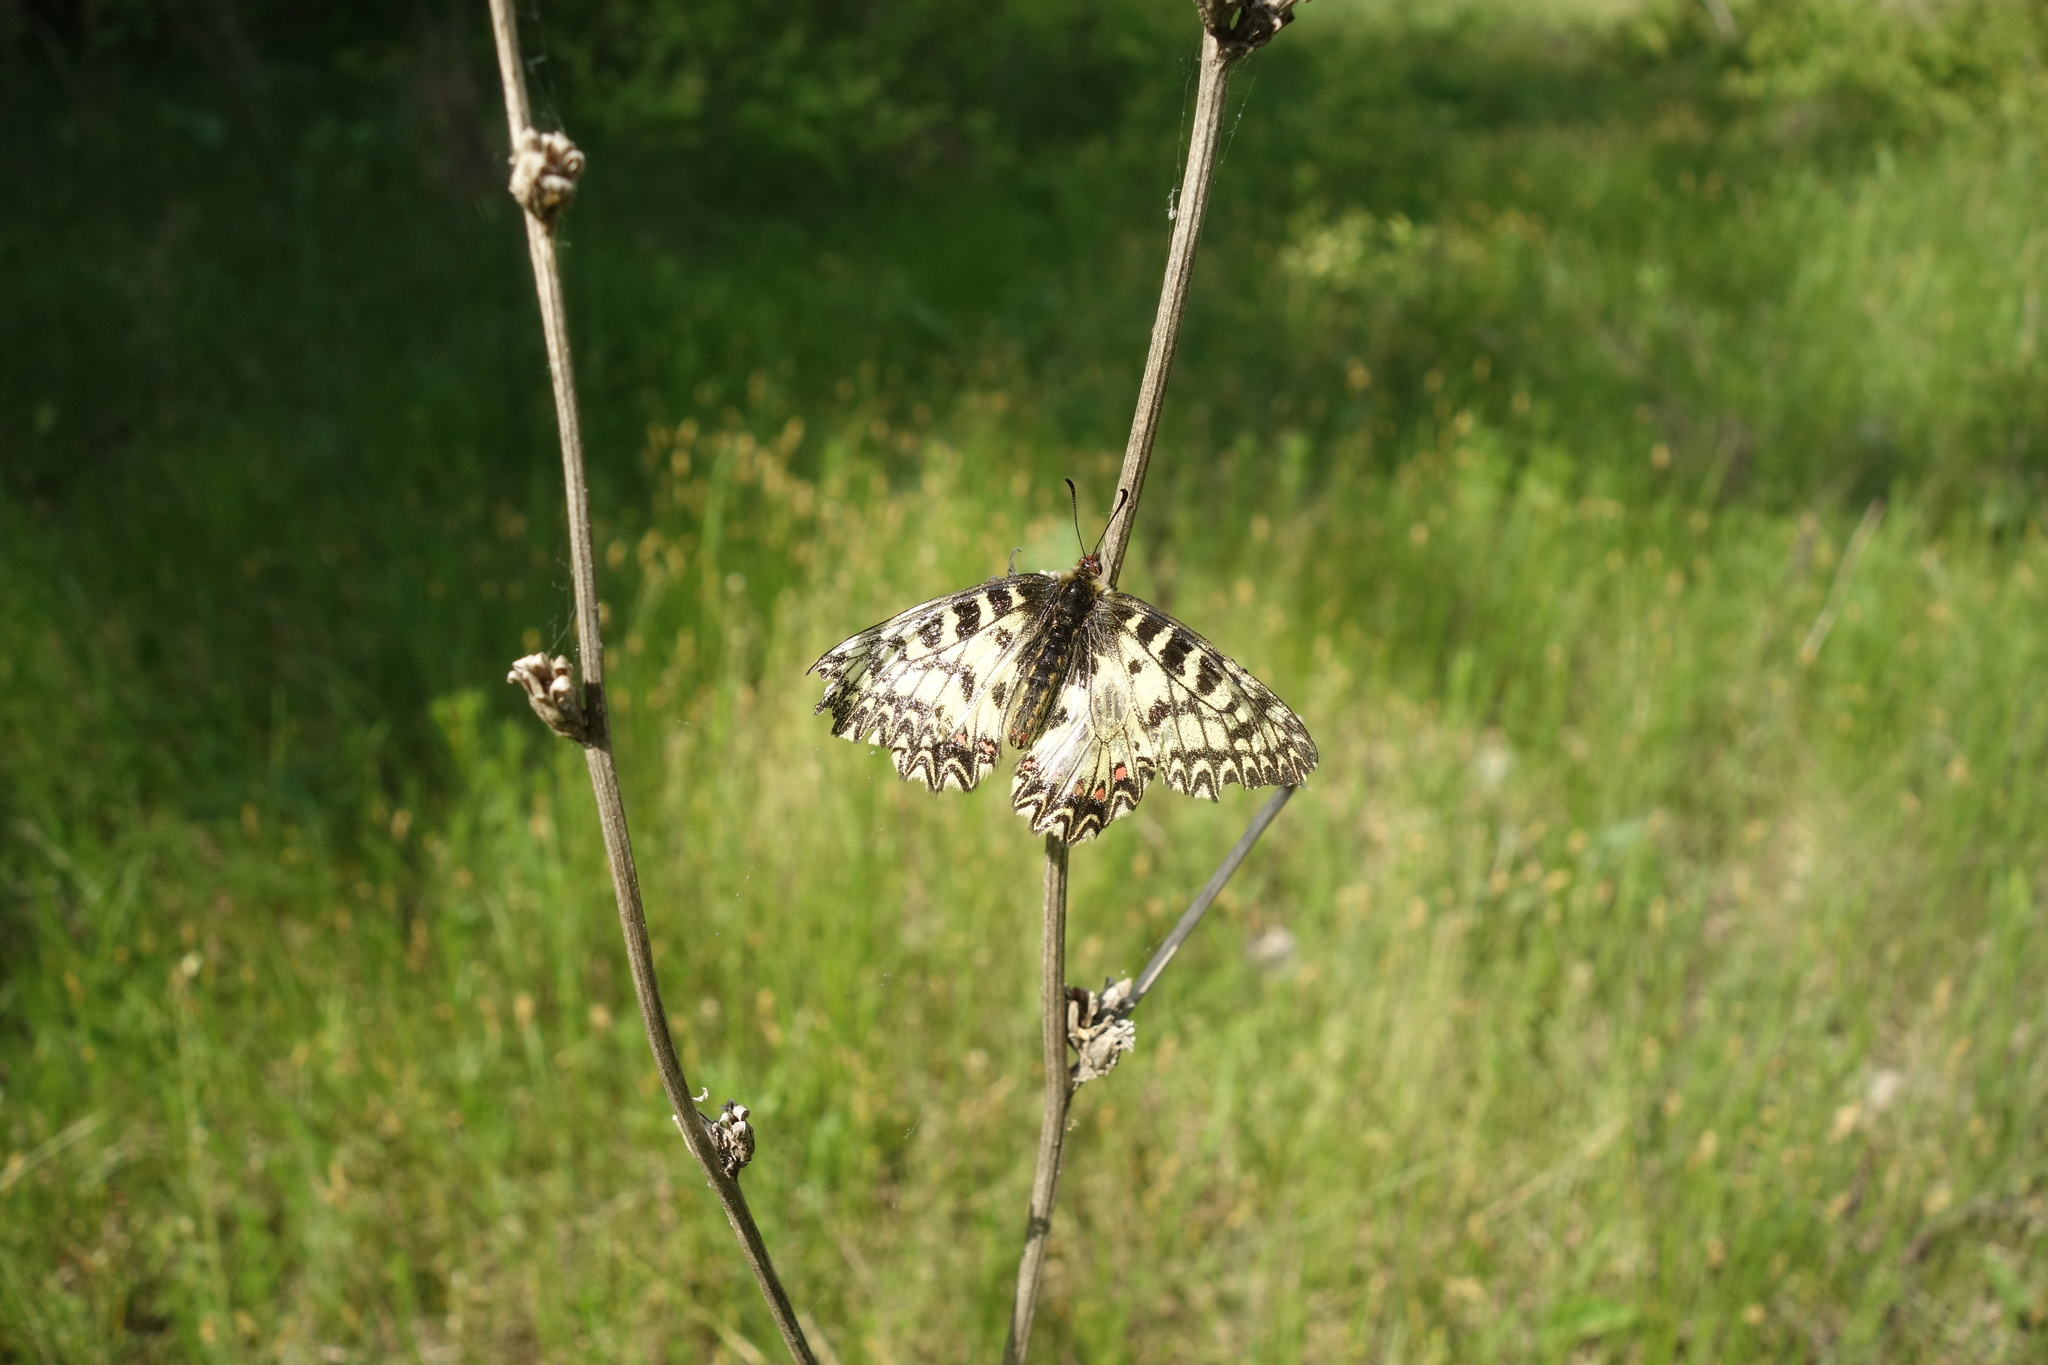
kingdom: Animalia
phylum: Arthropoda
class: Insecta
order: Lepidoptera
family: Papilionidae
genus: Zerynthia
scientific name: Zerynthia polyxena
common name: Southern festoon
